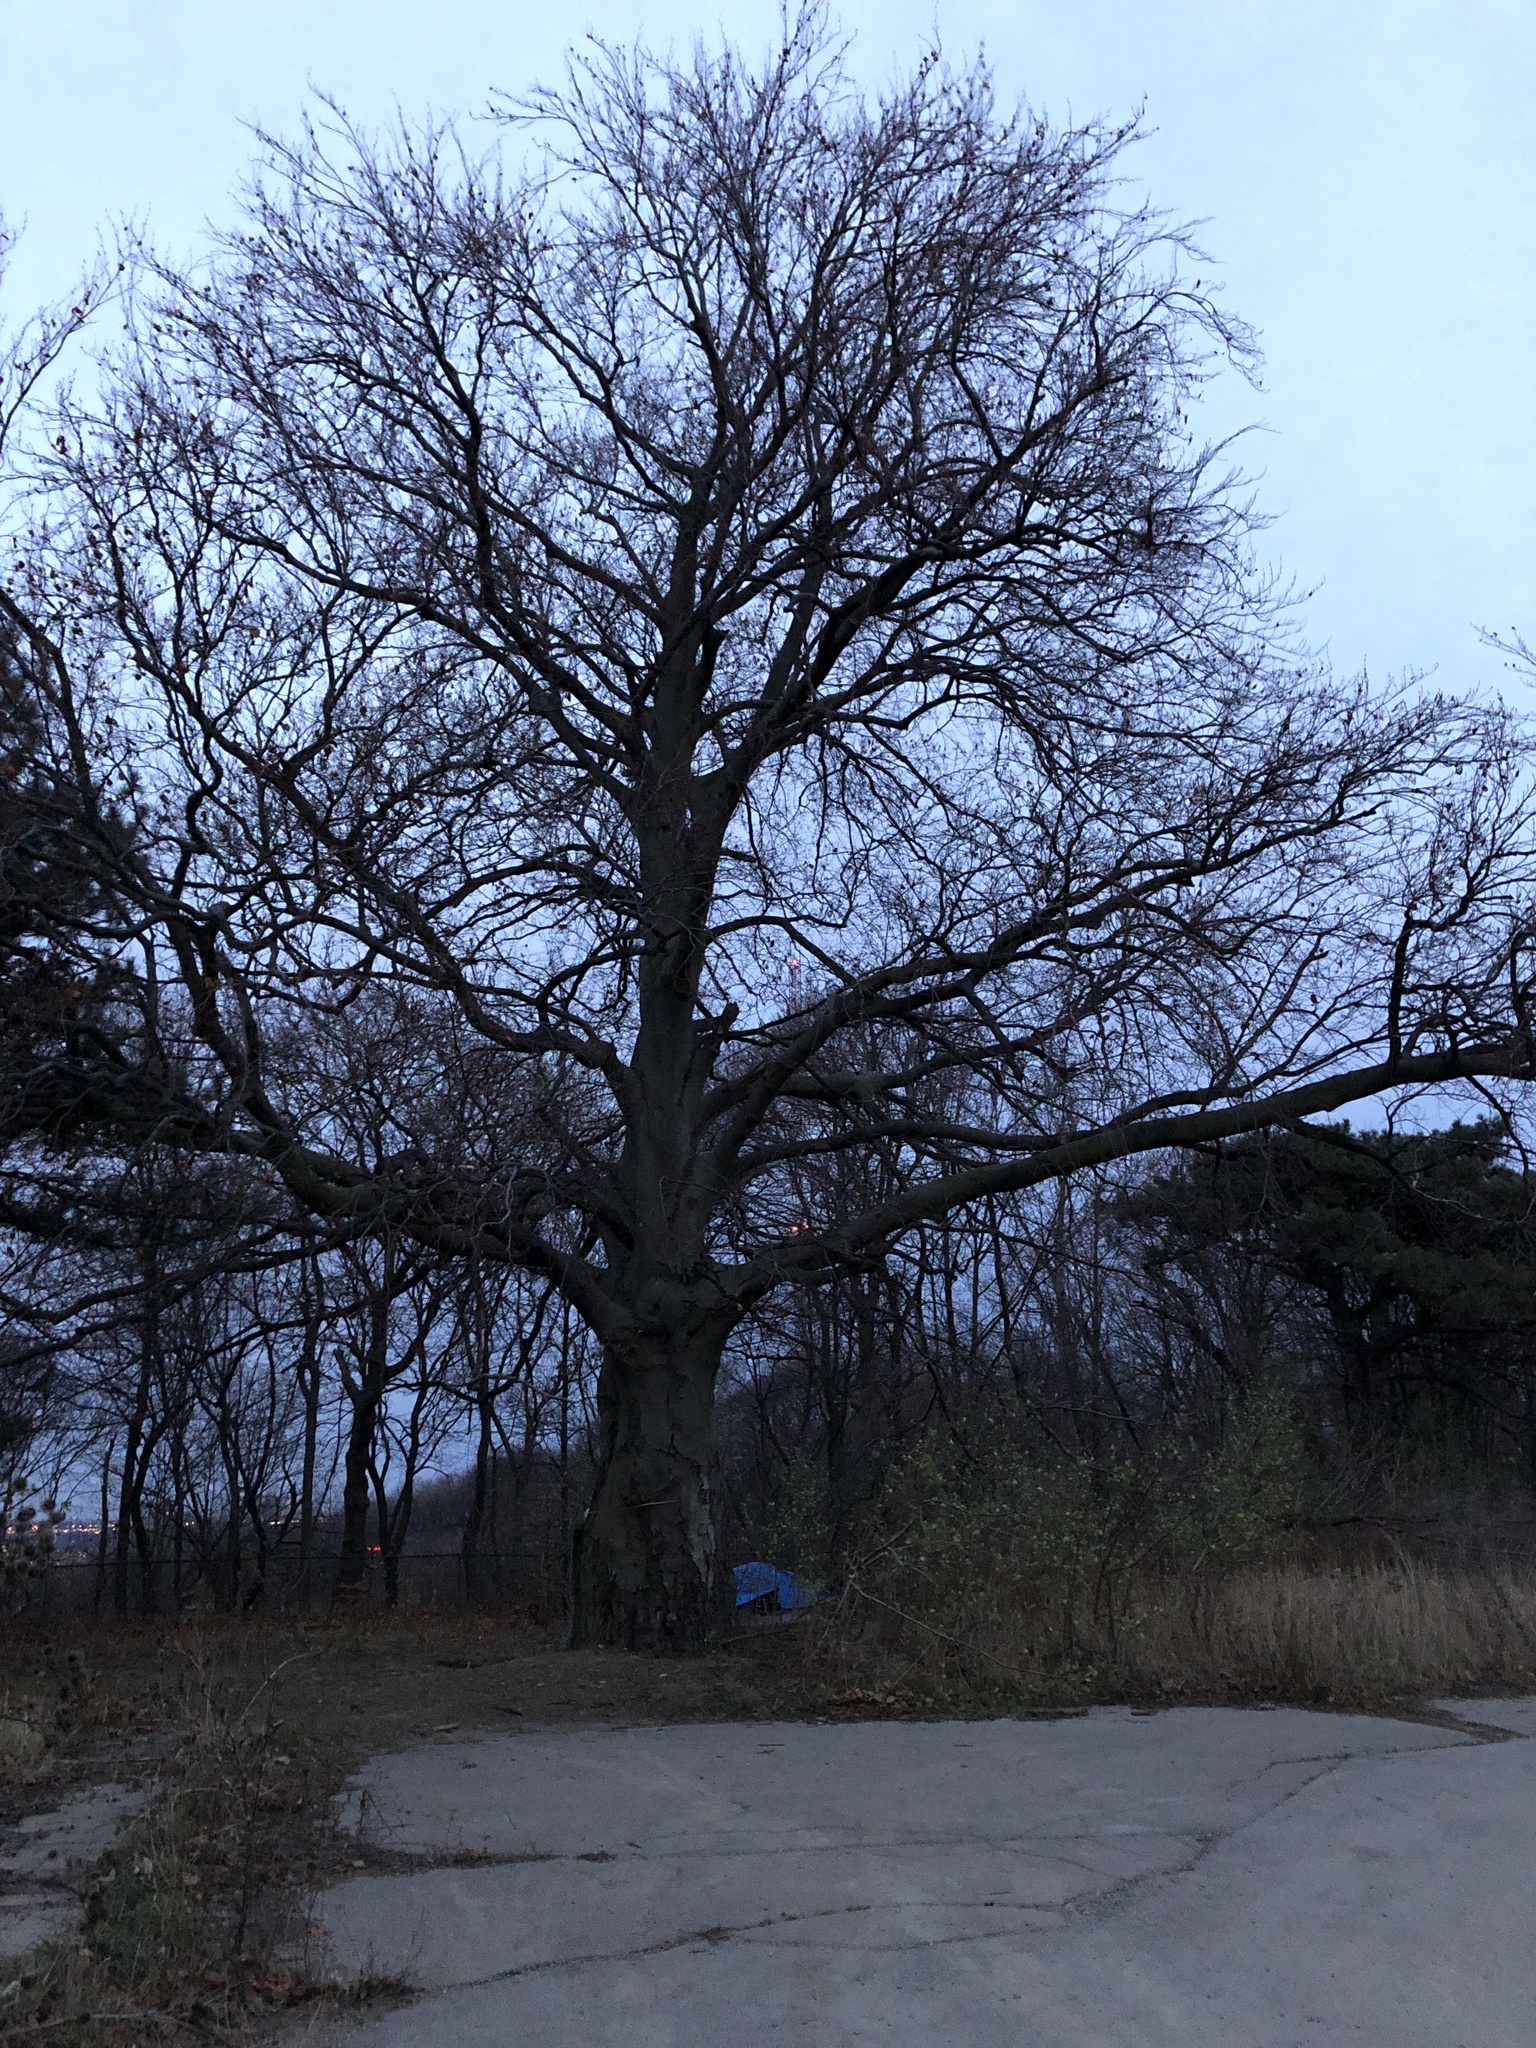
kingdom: Plantae
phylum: Tracheophyta
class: Magnoliopsida
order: Fagales
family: Fagaceae
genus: Fagus
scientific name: Fagus grandifolia
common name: American beech
